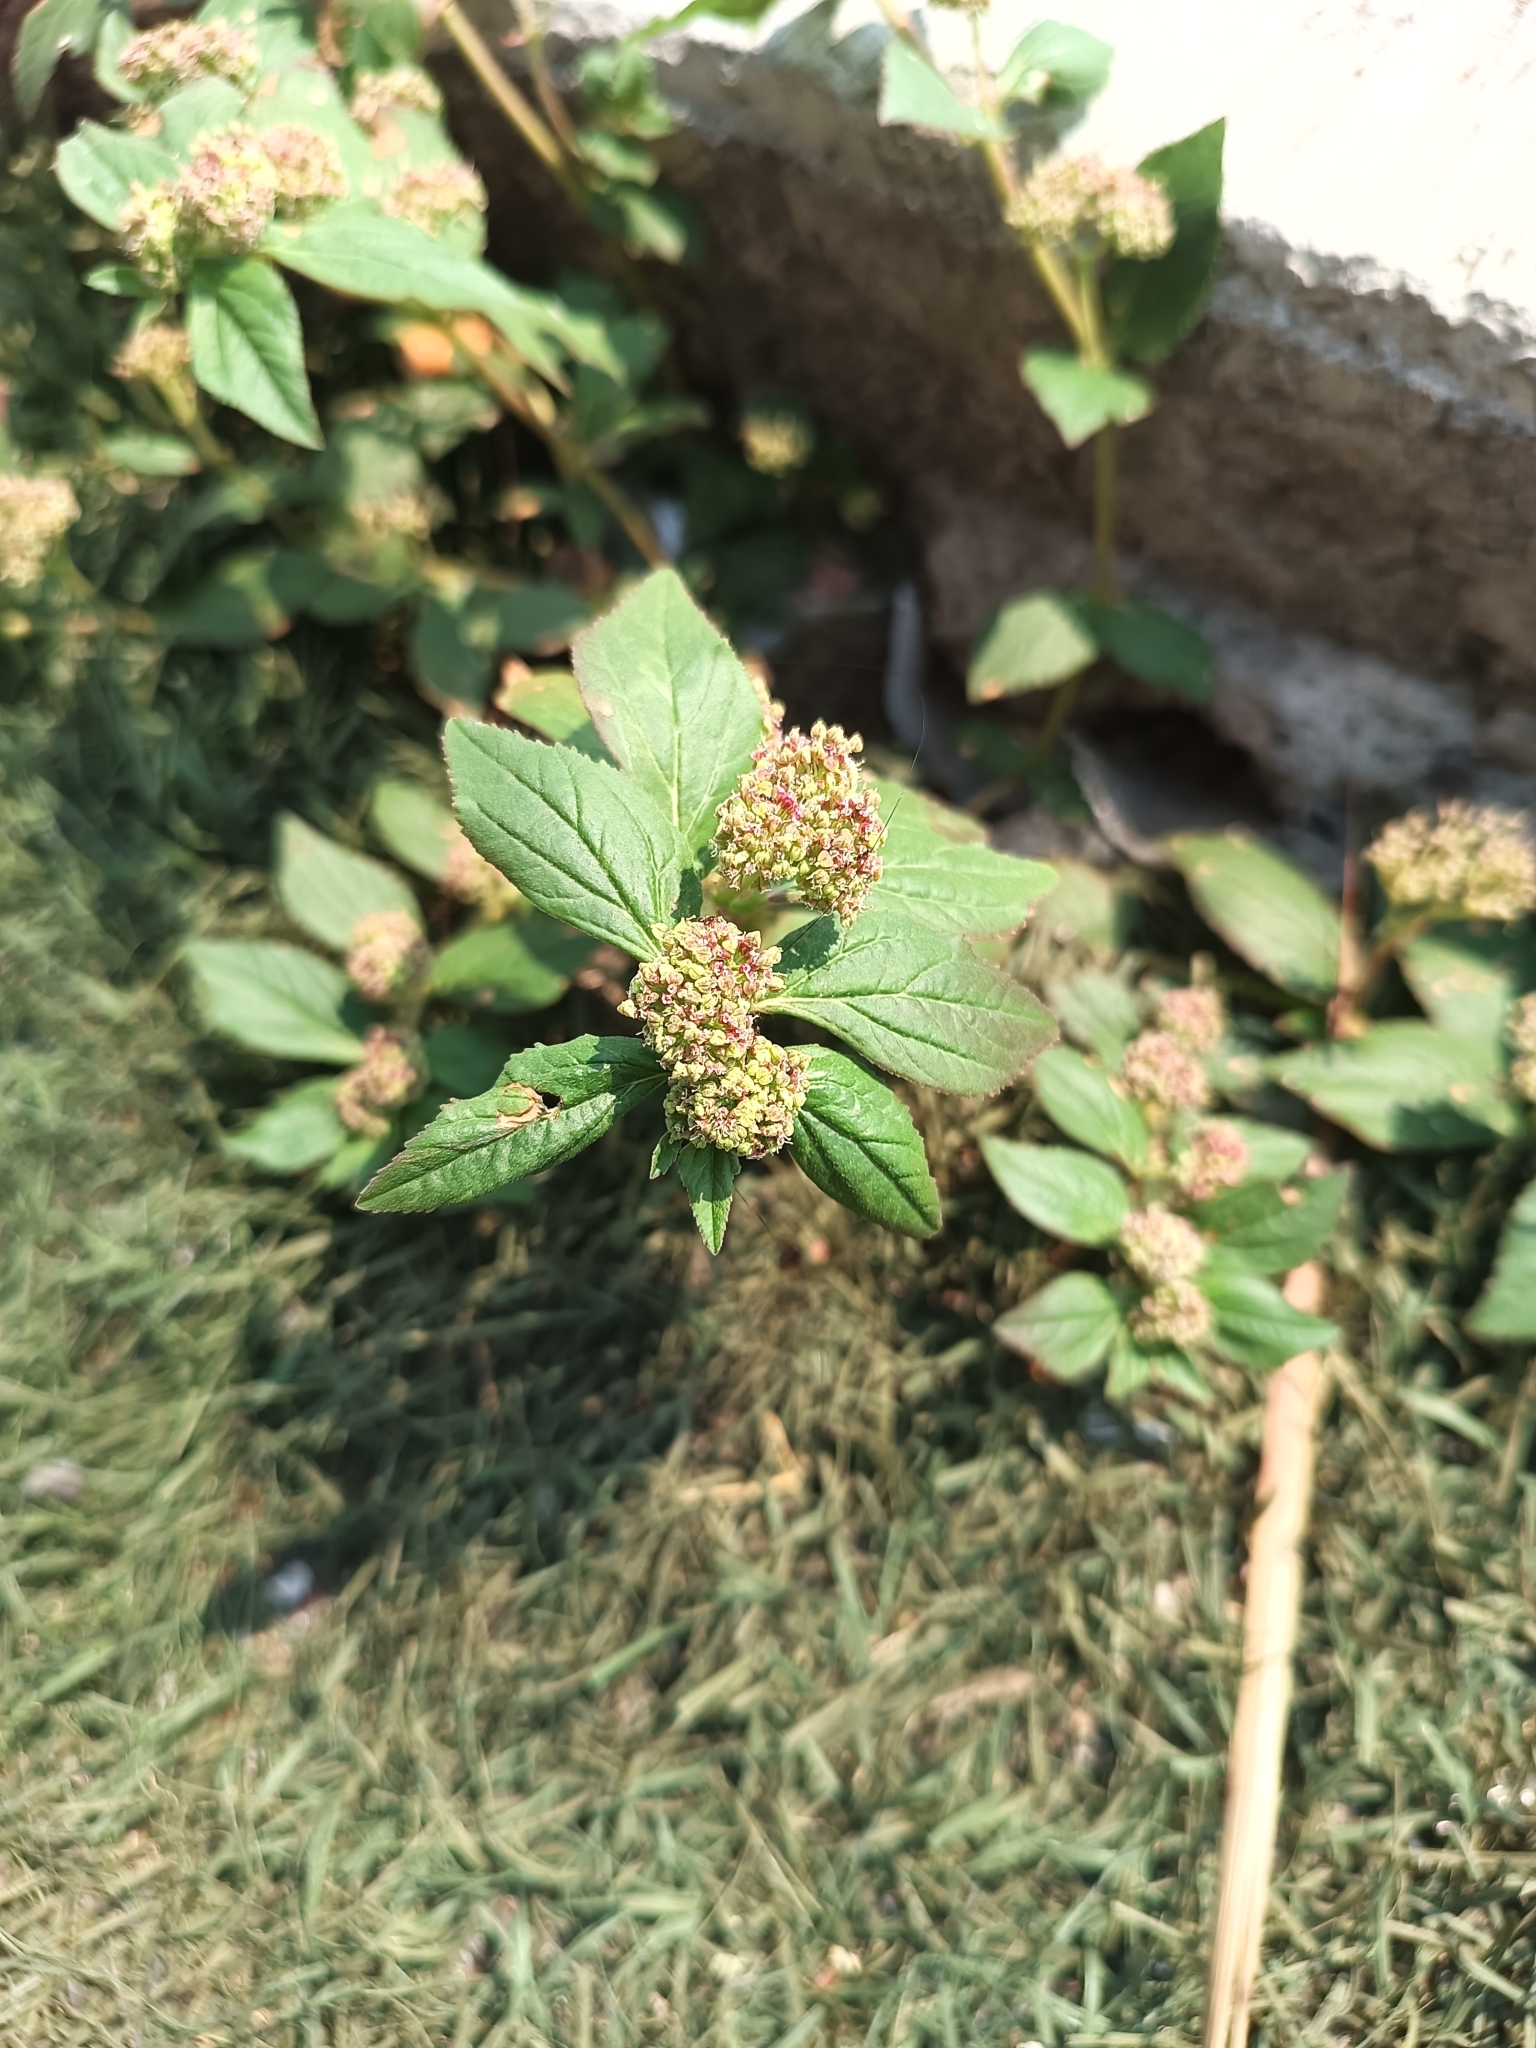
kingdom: Plantae
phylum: Tracheophyta
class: Magnoliopsida
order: Malpighiales
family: Euphorbiaceae
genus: Euphorbia
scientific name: Euphorbia hirta
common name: Pillpod sandmat
